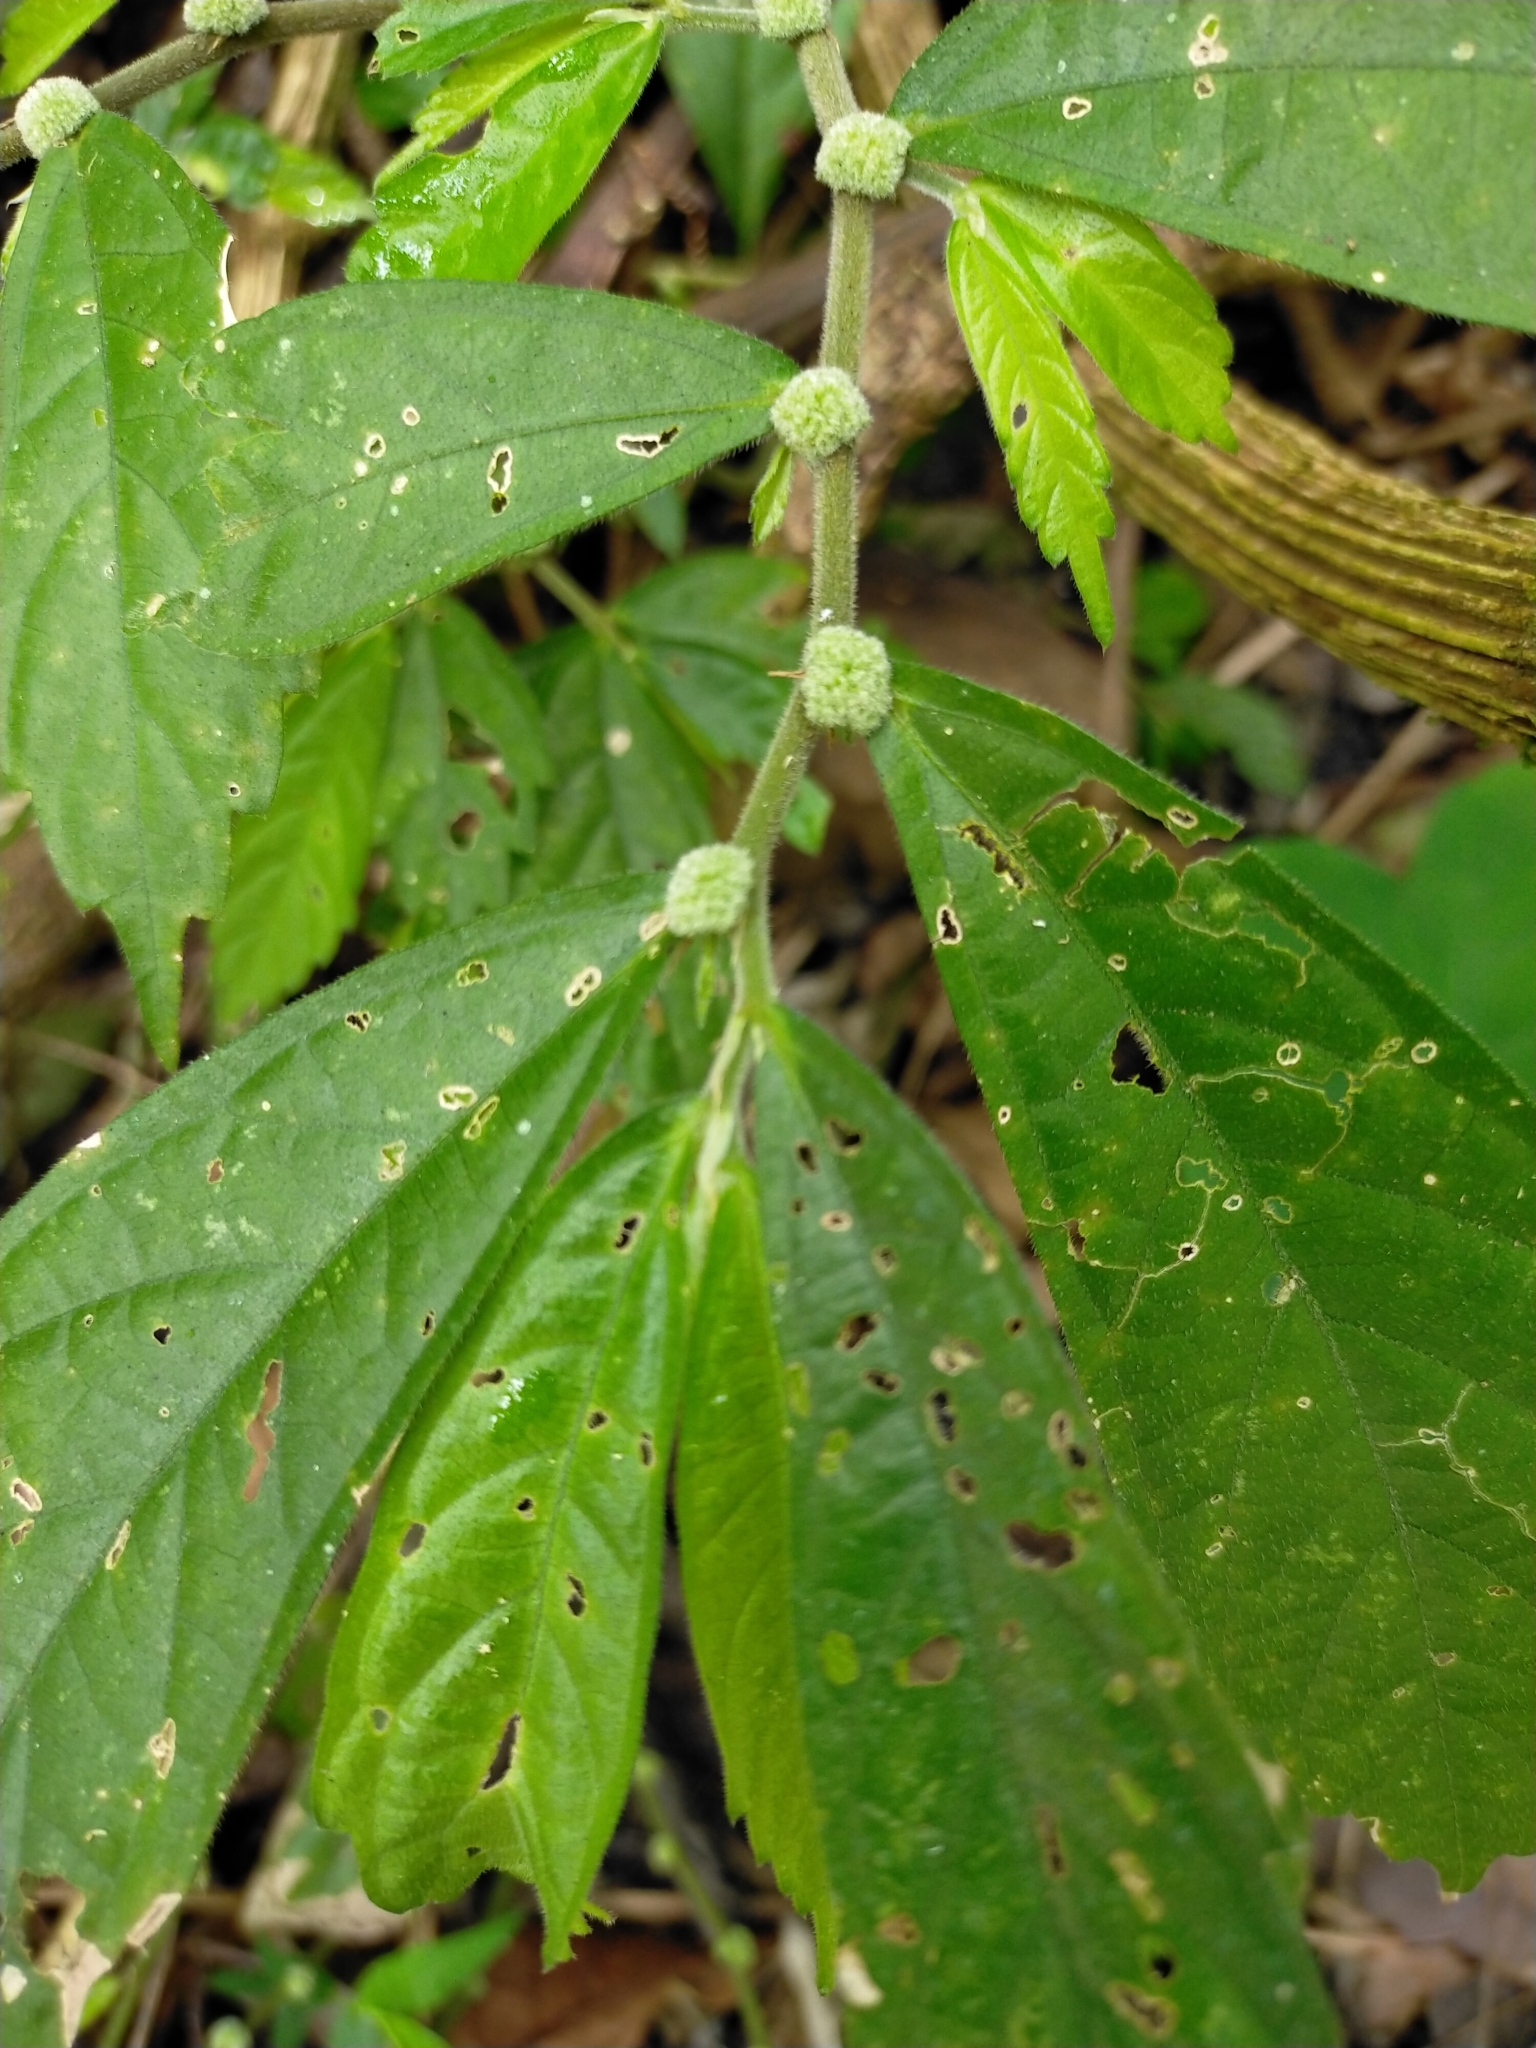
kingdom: Plantae
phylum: Tracheophyta
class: Magnoliopsida
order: Rosales
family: Urticaceae
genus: Elatostema
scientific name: Elatostema lineolatum
